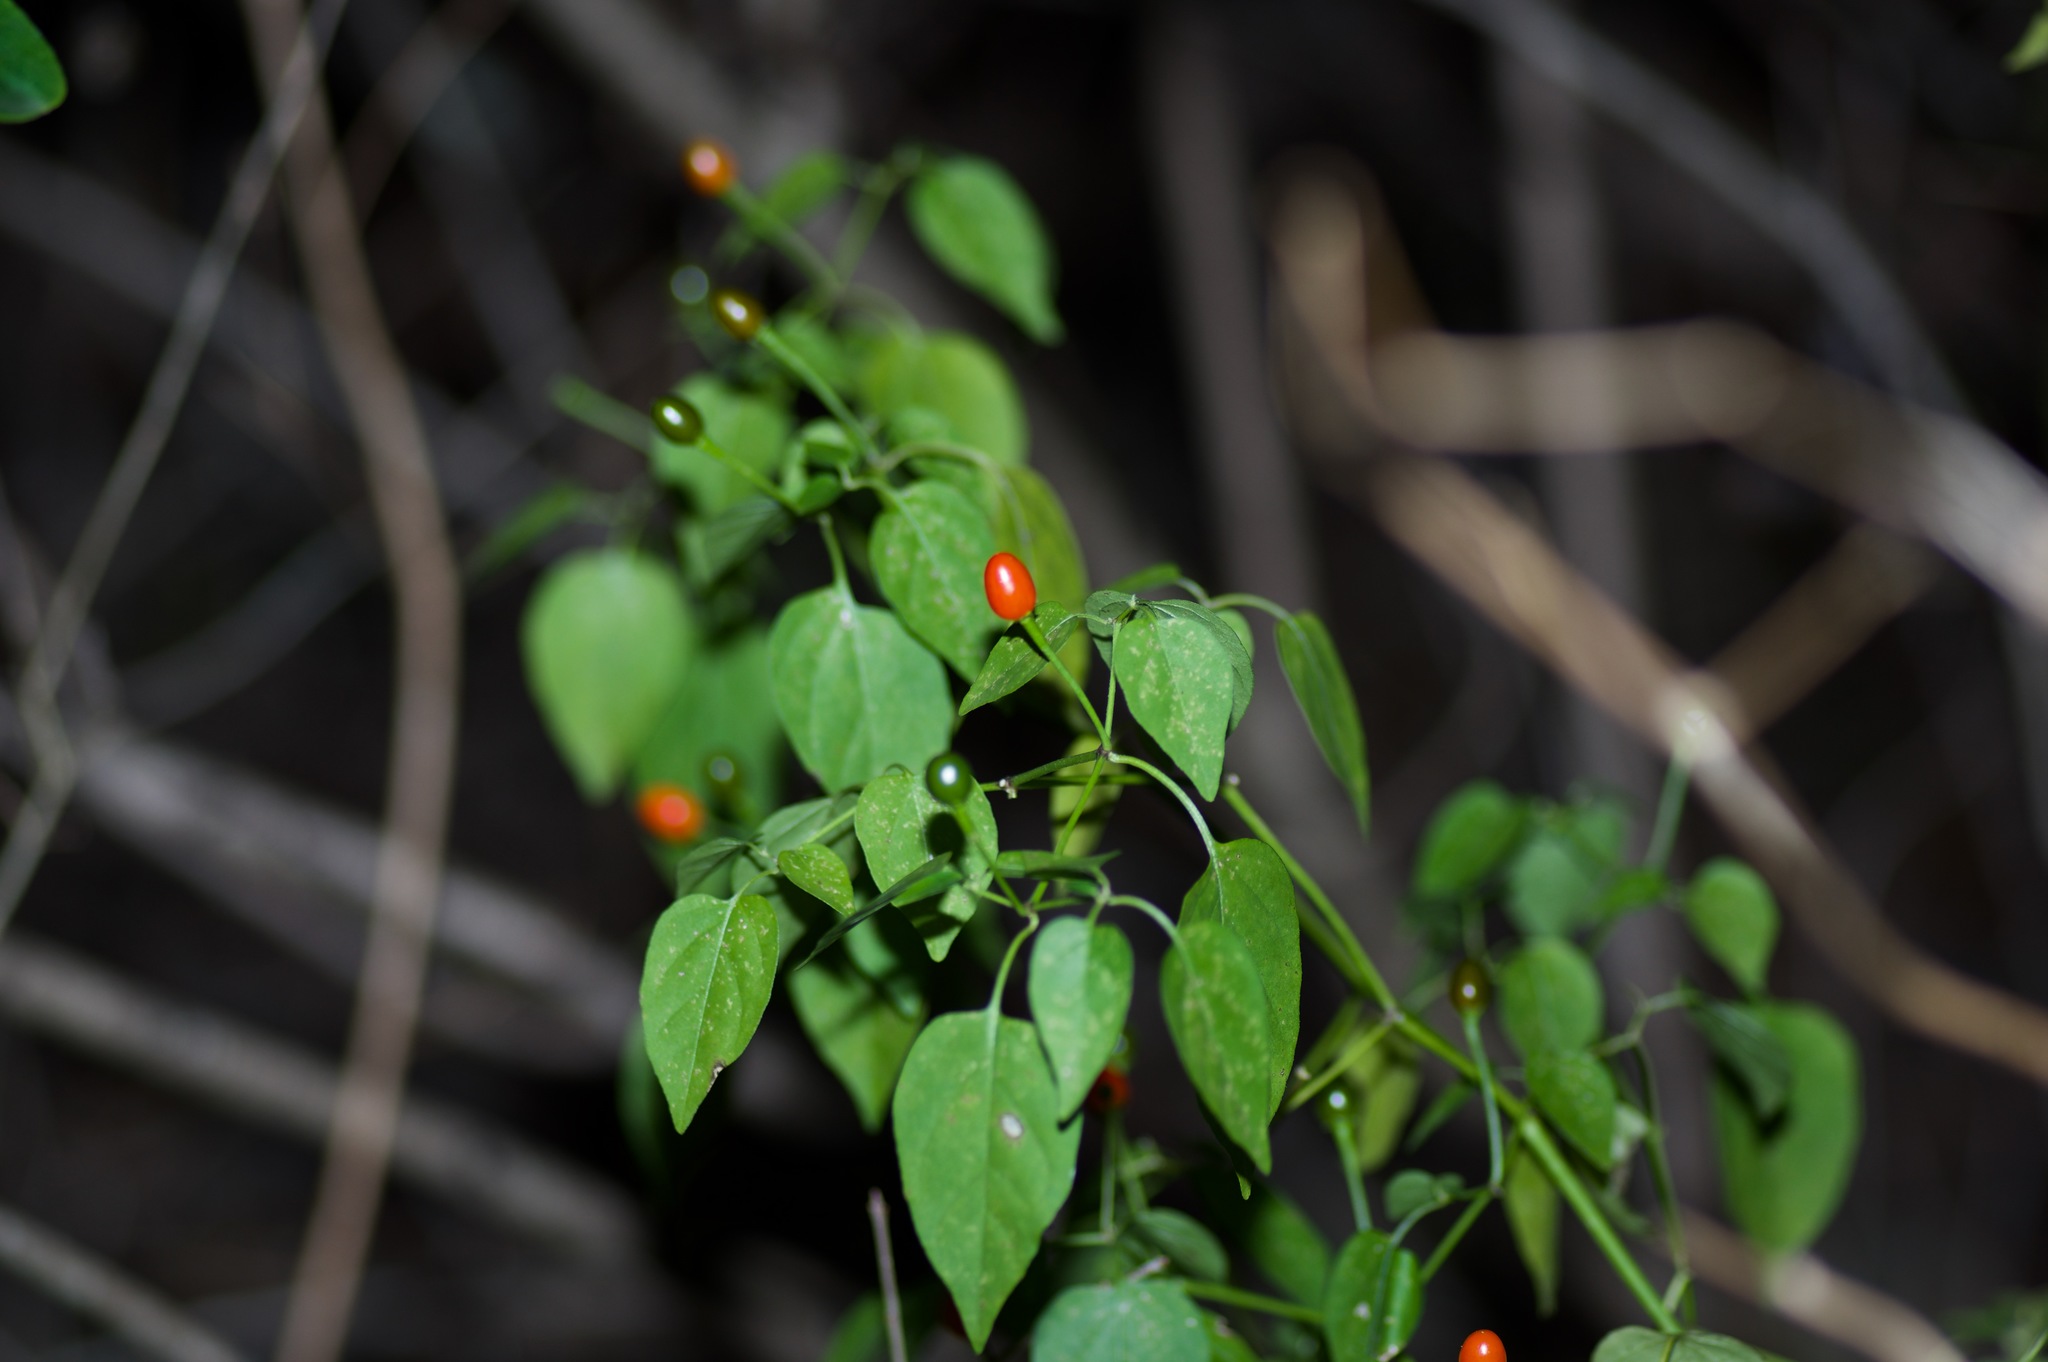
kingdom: Plantae
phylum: Tracheophyta
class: Magnoliopsida
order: Solanales
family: Solanaceae
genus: Capsicum
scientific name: Capsicum annuum
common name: Sweet pepper
